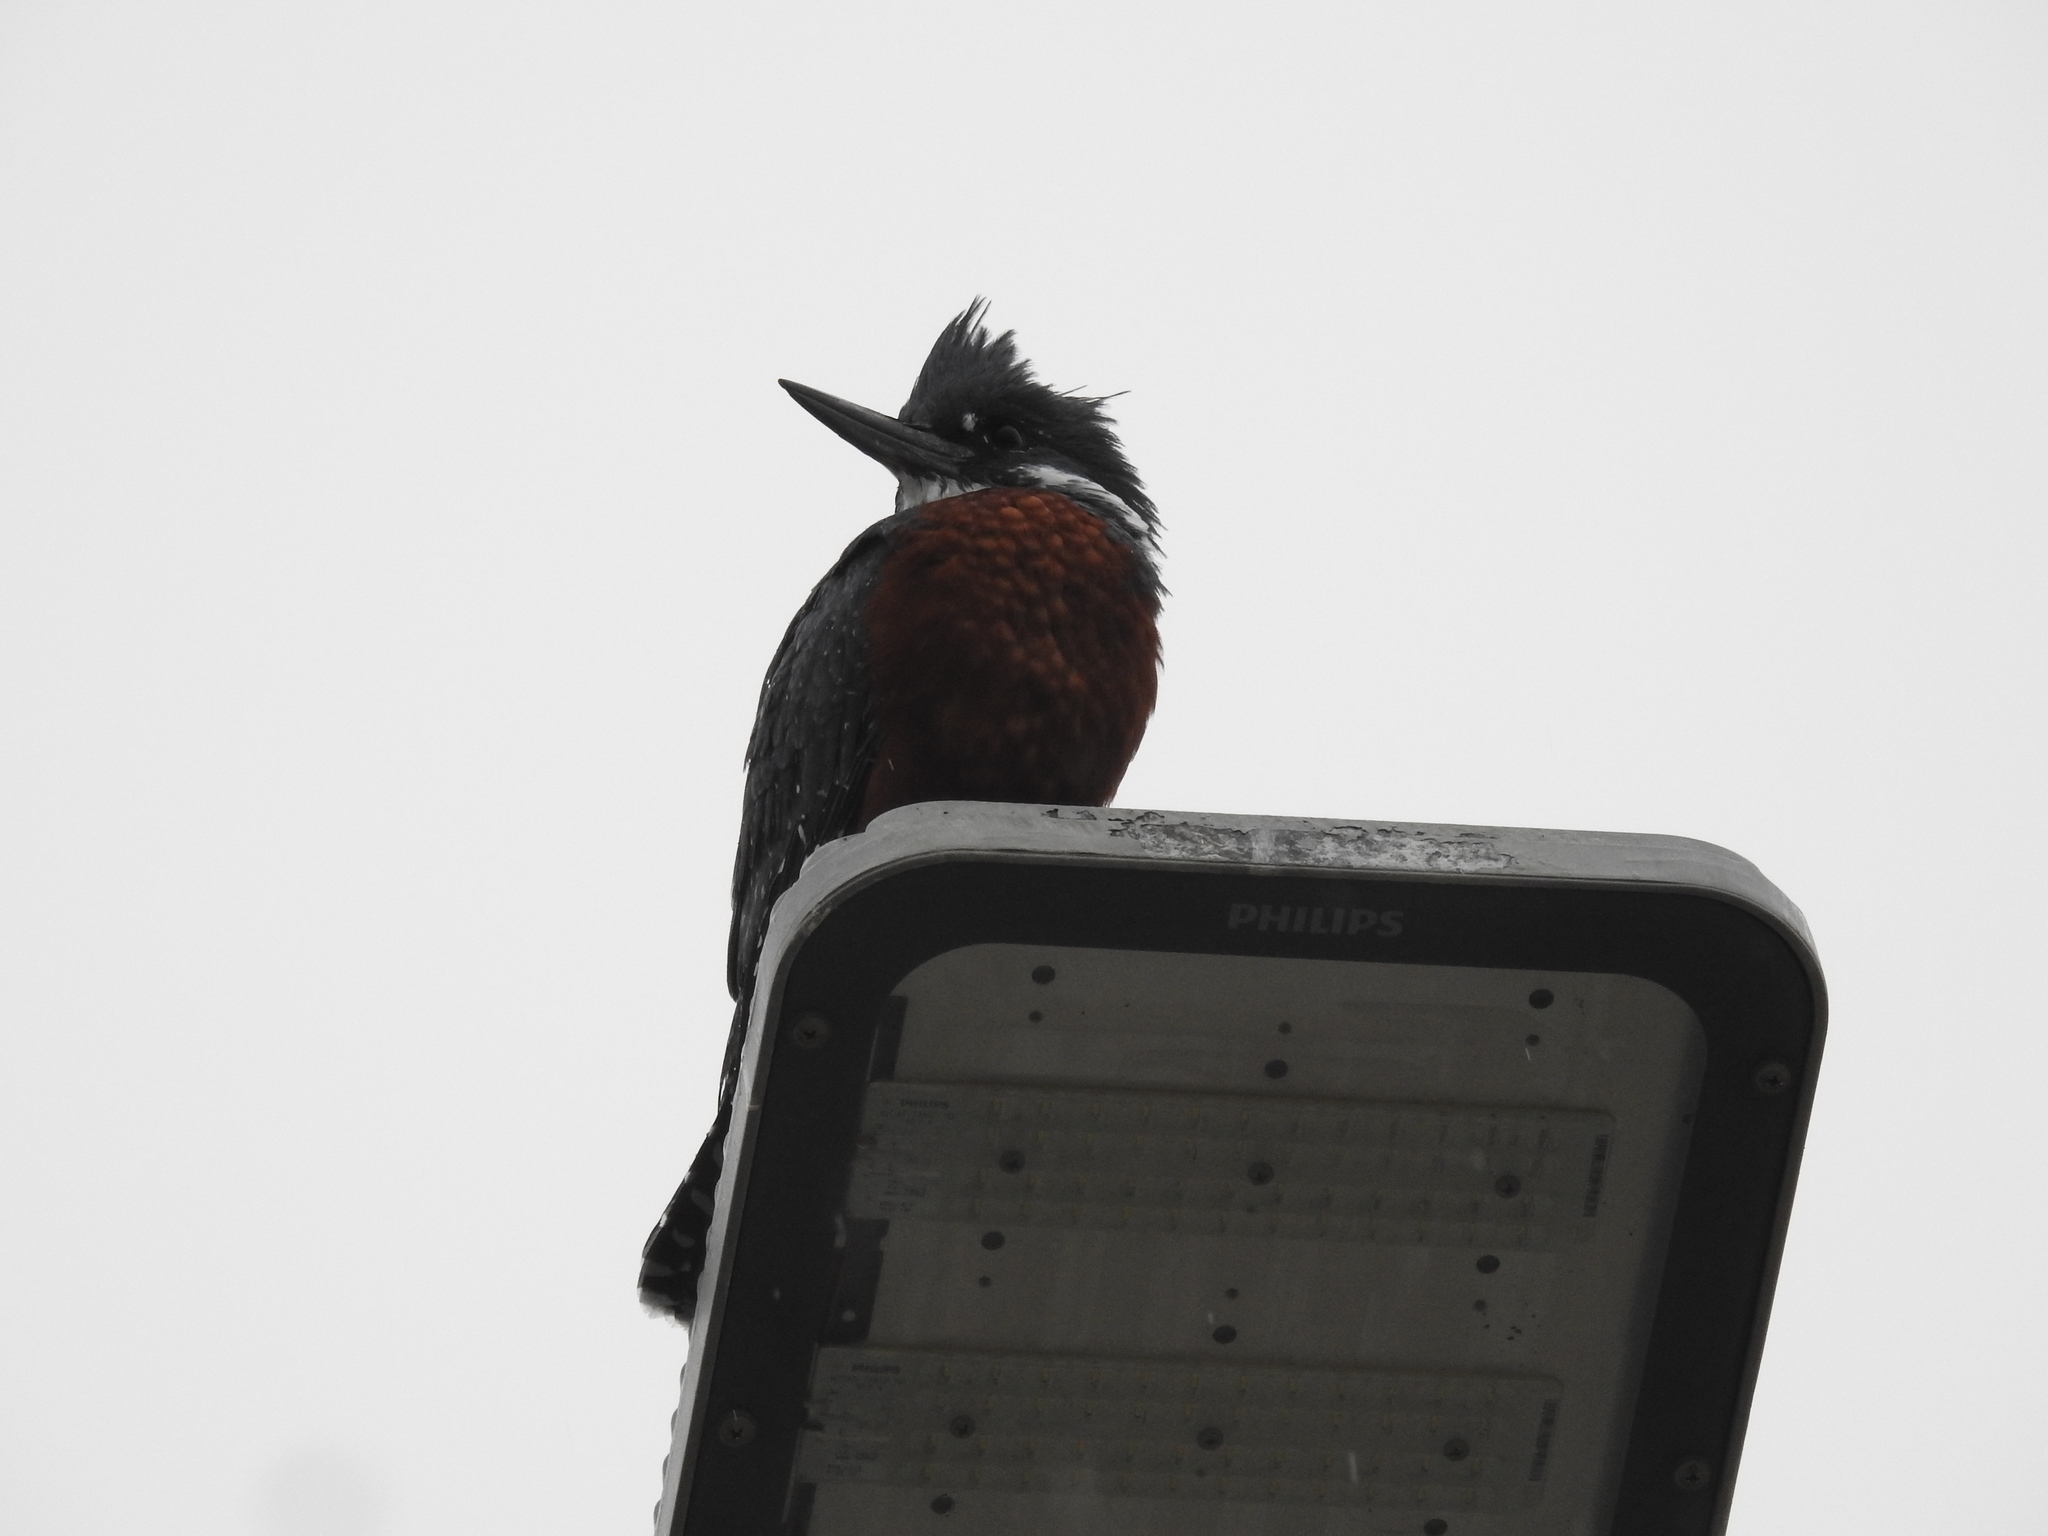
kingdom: Animalia
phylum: Chordata
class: Aves
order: Coraciiformes
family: Alcedinidae
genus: Megaceryle
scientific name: Megaceryle torquata
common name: Ringed kingfisher
